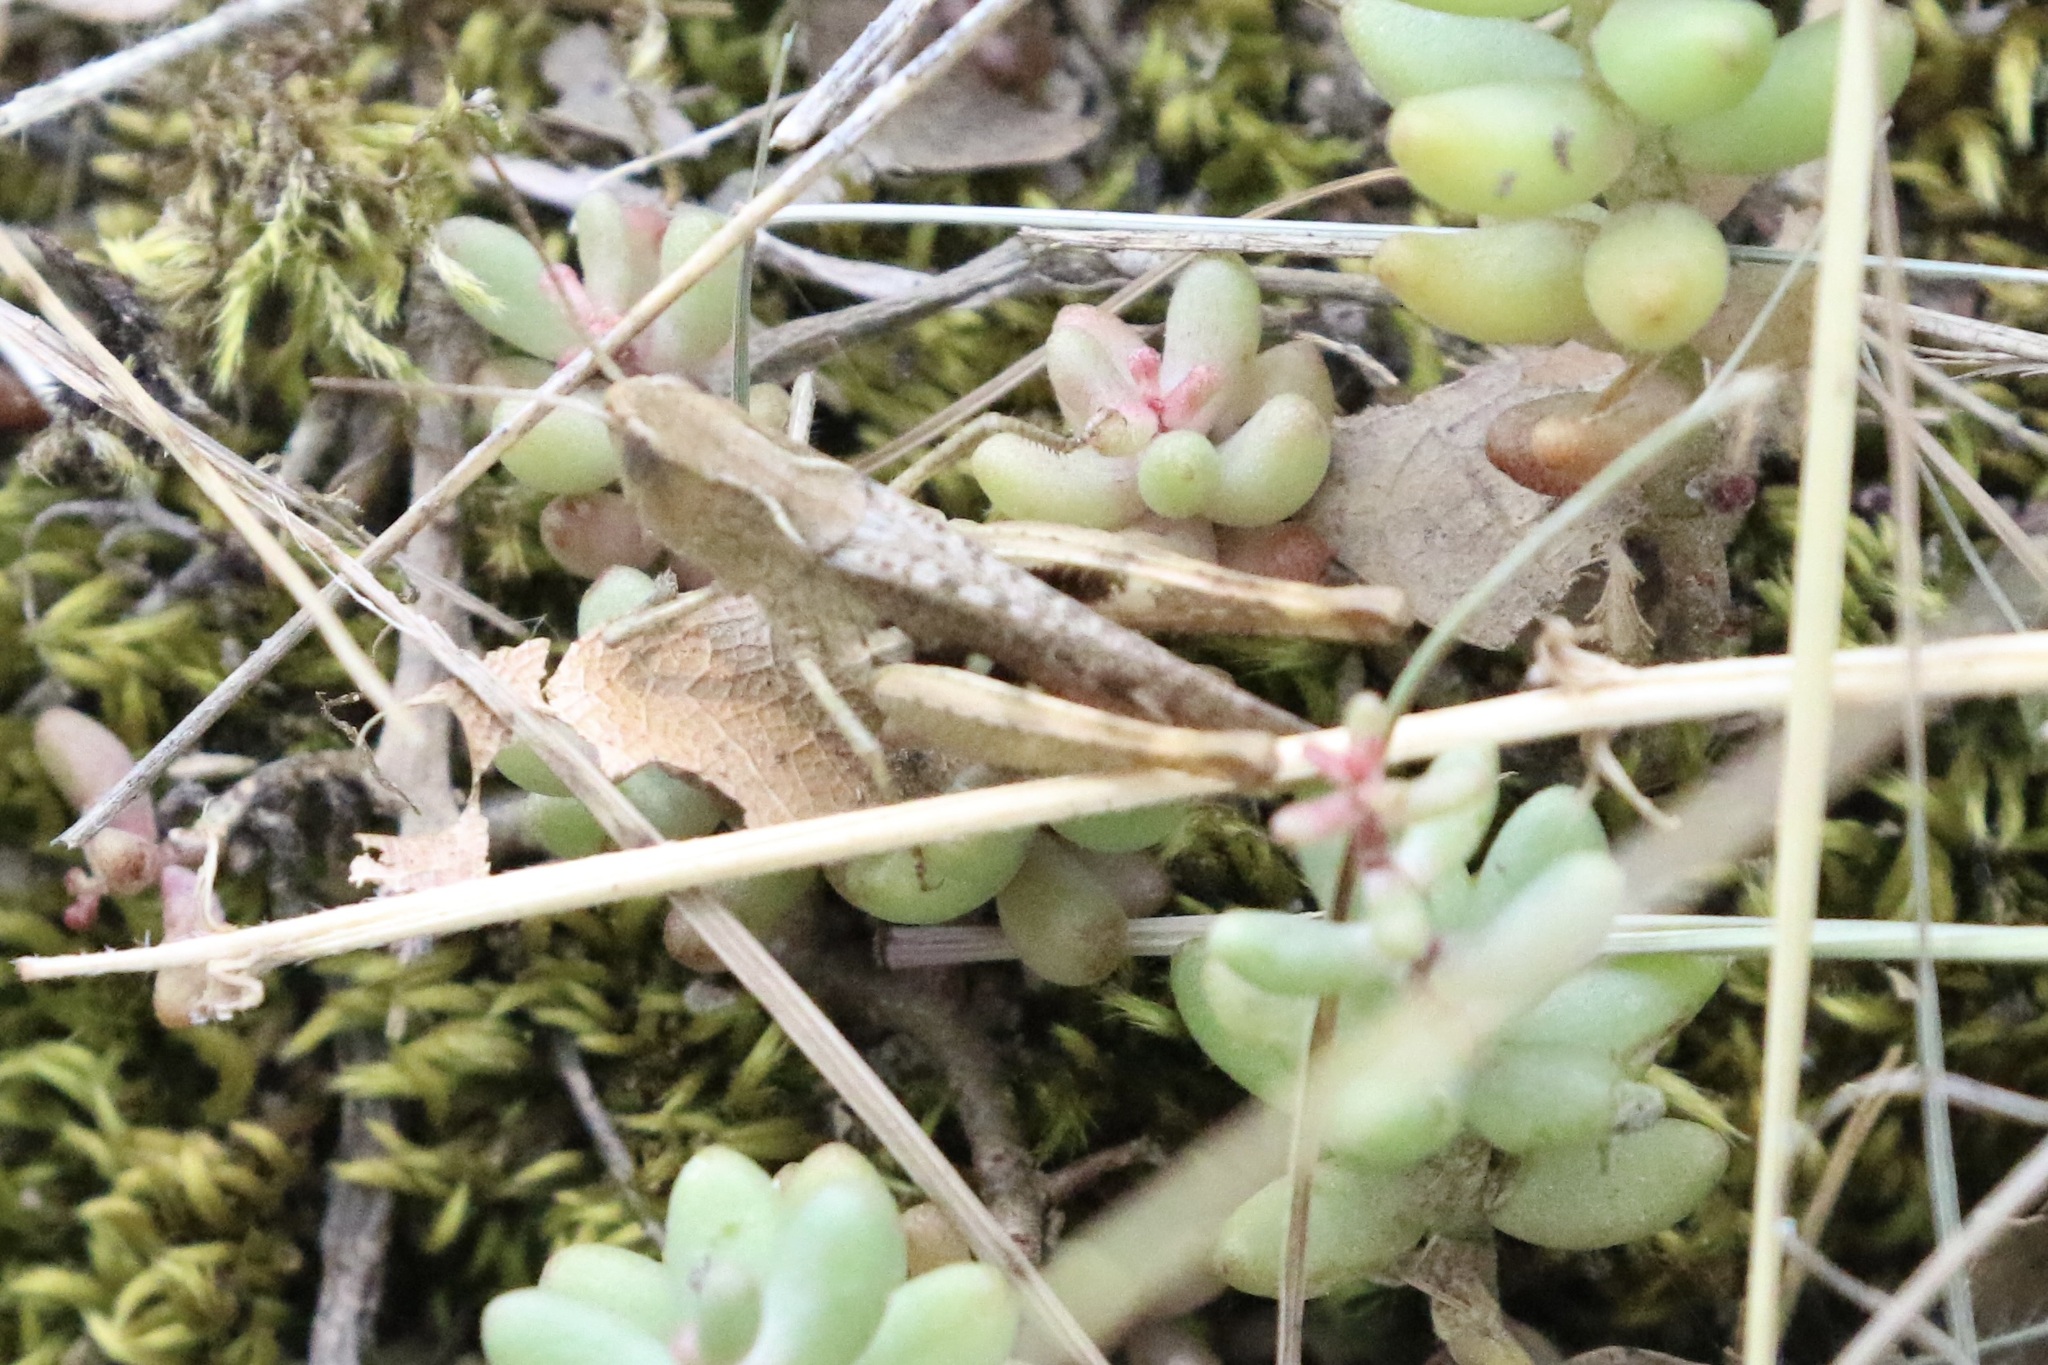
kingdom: Animalia
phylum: Arthropoda
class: Insecta
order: Orthoptera
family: Acrididae
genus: Chorthippus
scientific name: Chorthippus vagans
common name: Heath grasshopper
